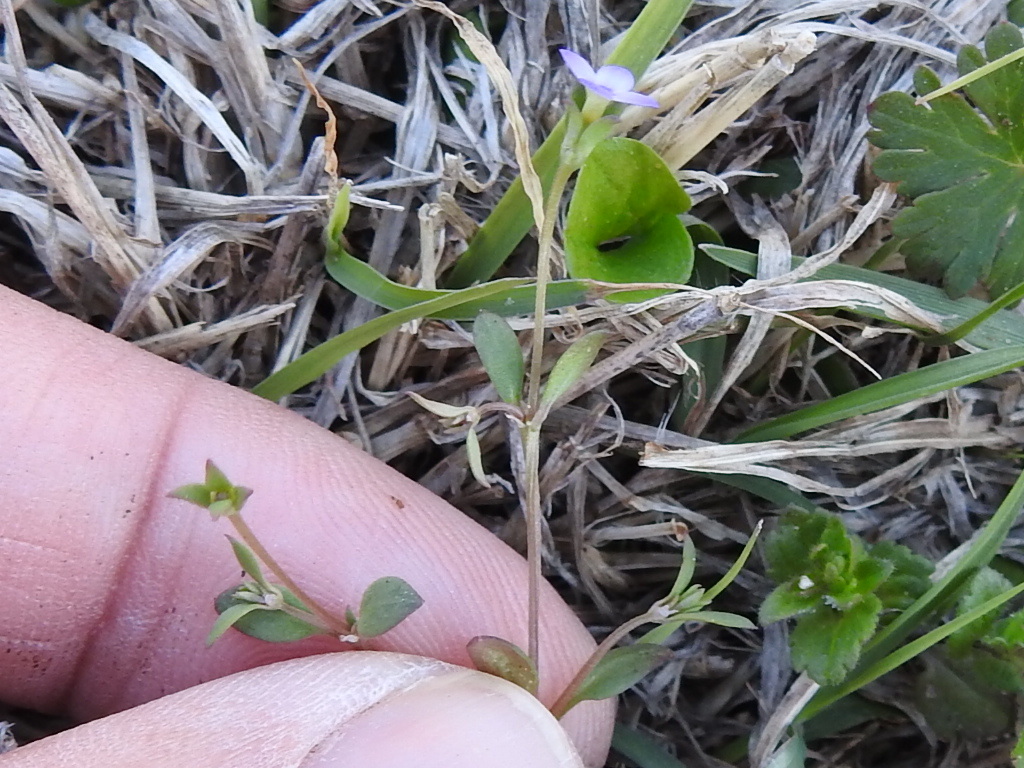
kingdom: Plantae
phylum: Tracheophyta
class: Magnoliopsida
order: Gentianales
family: Rubiaceae
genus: Houstonia
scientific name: Houstonia pusilla
